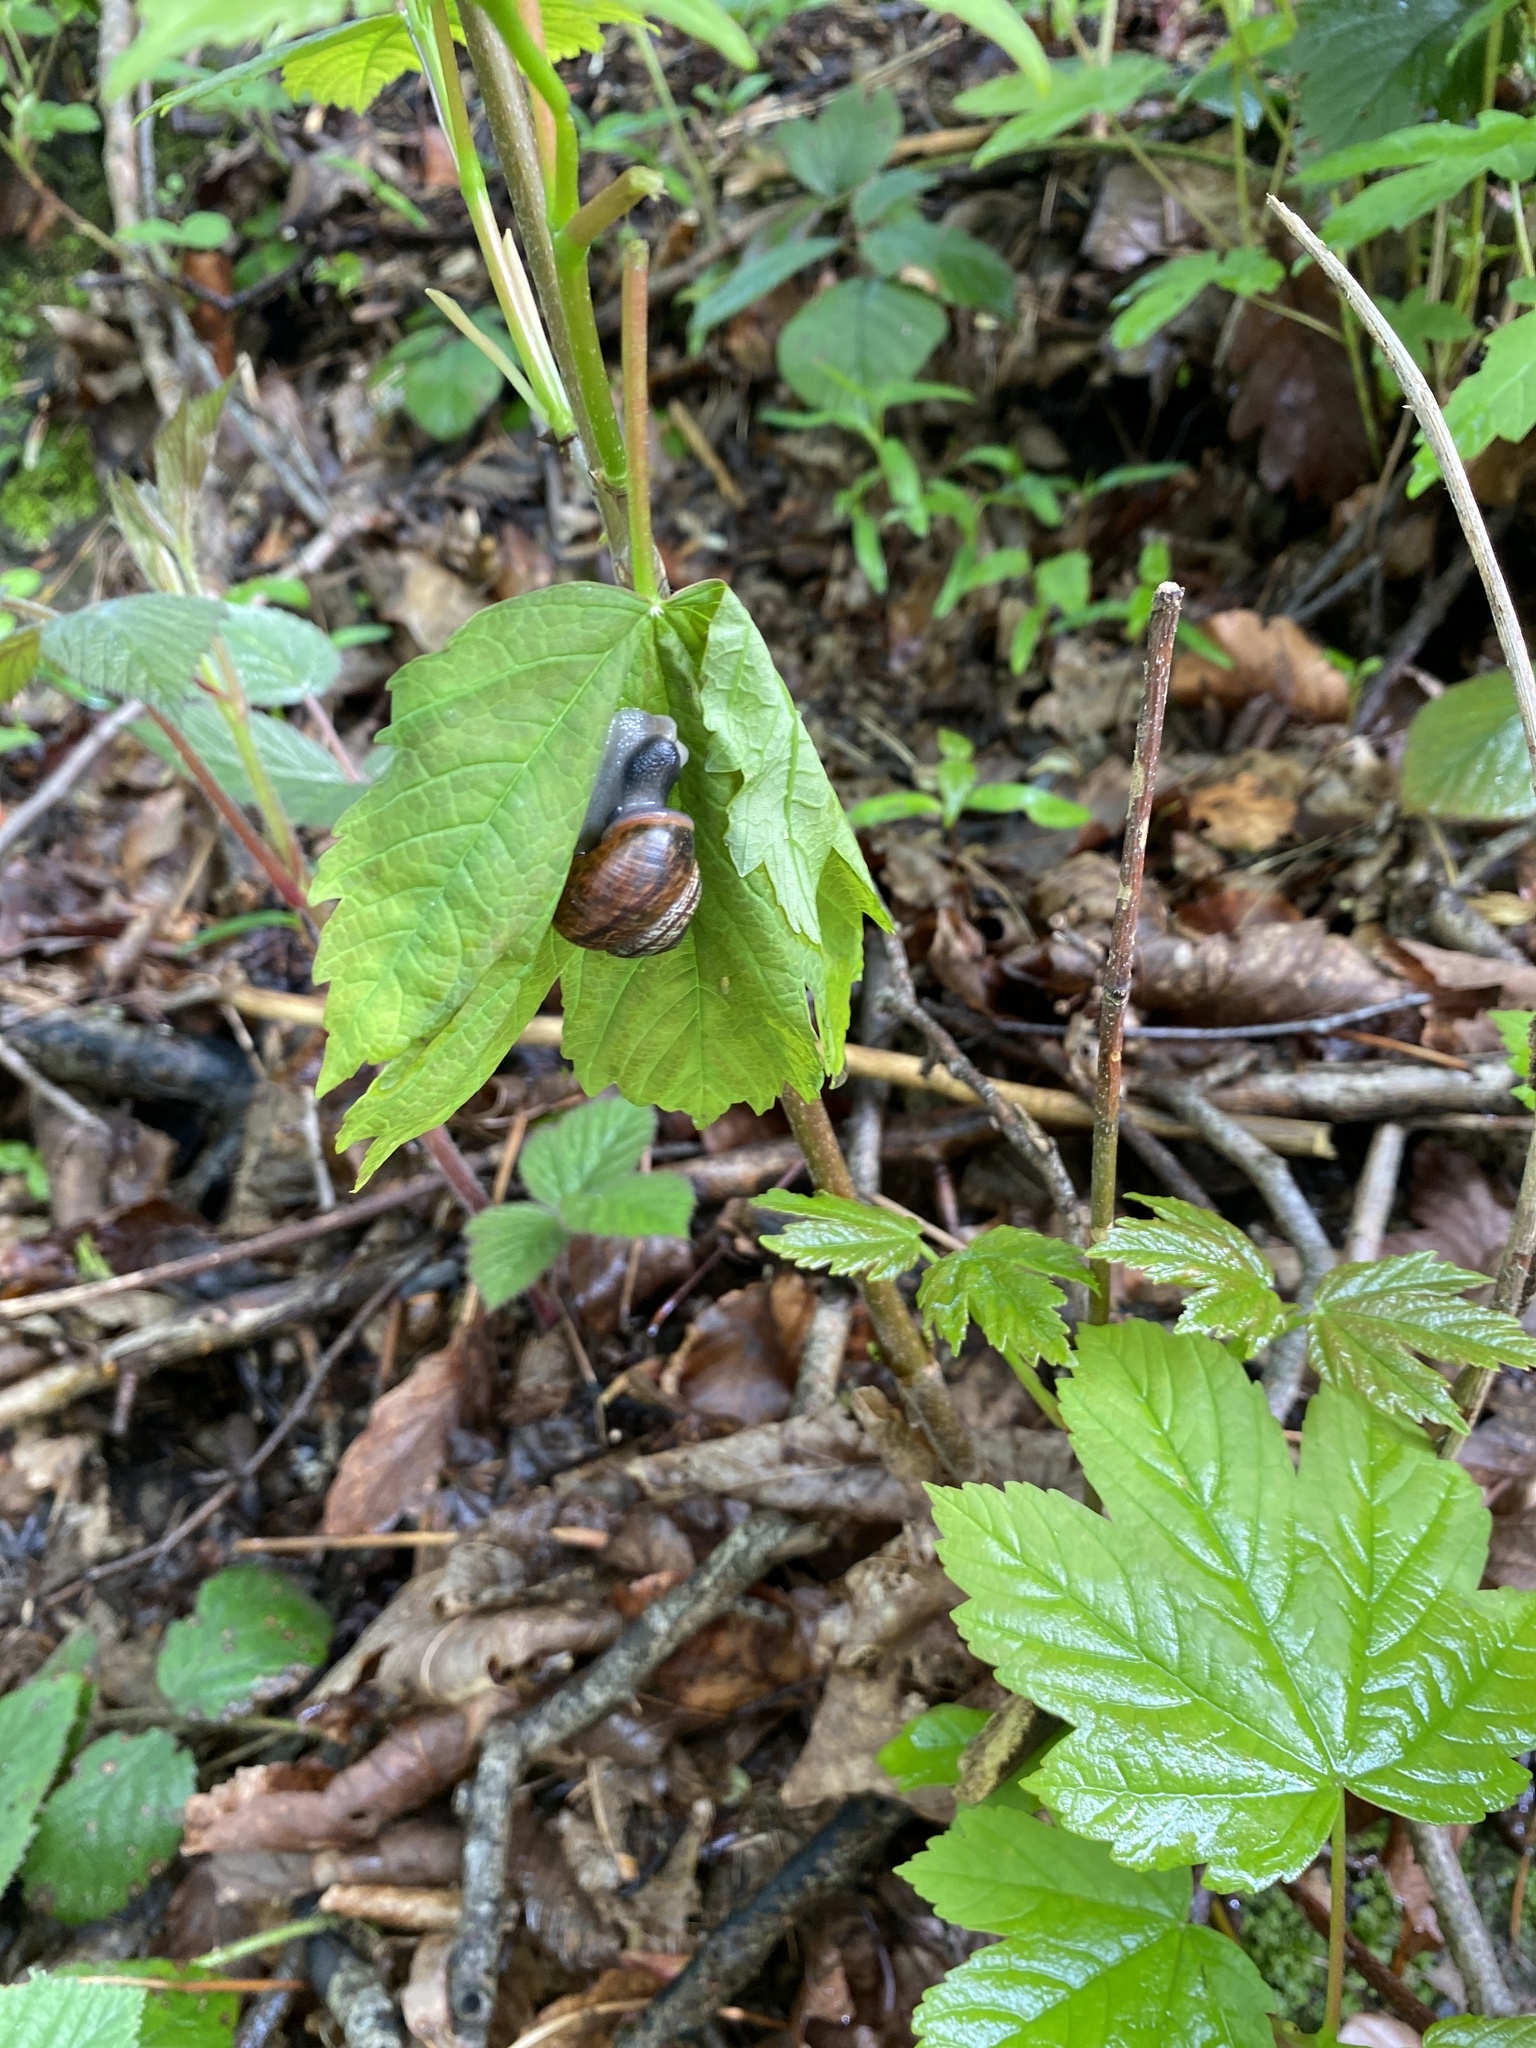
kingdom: Animalia
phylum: Mollusca
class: Gastropoda
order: Stylommatophora
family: Helicidae
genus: Arianta
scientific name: Arianta arbustorum
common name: Copse snail
